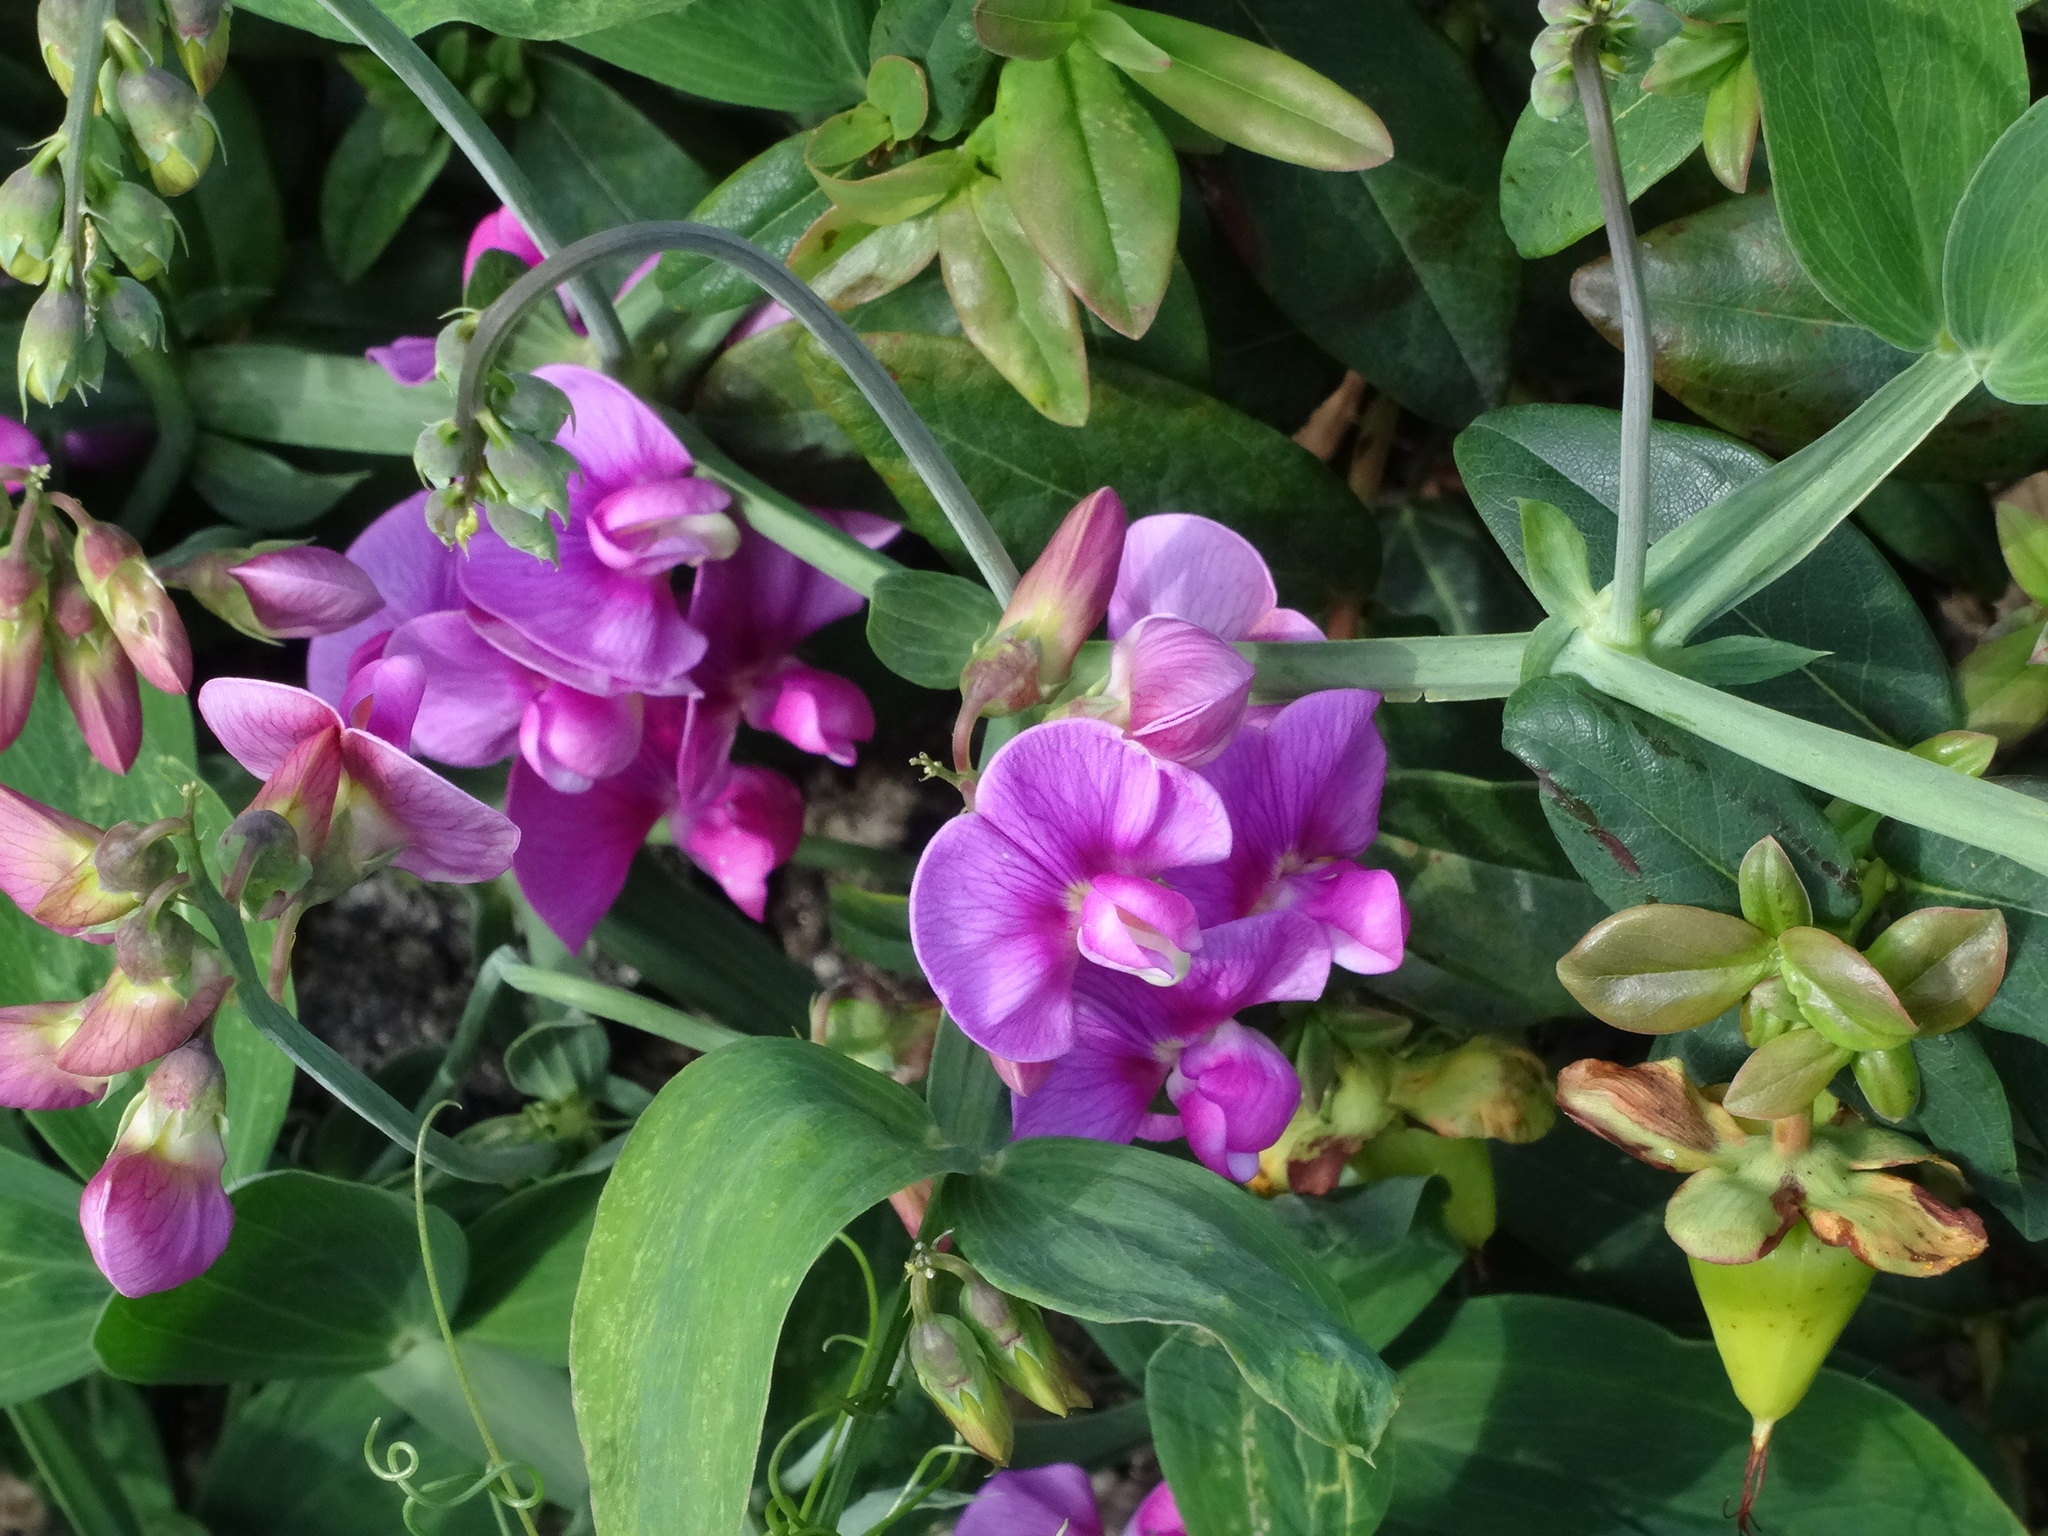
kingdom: Plantae
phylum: Tracheophyta
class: Magnoliopsida
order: Fabales
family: Fabaceae
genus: Lathyrus
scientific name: Lathyrus latifolius
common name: Perennial pea
